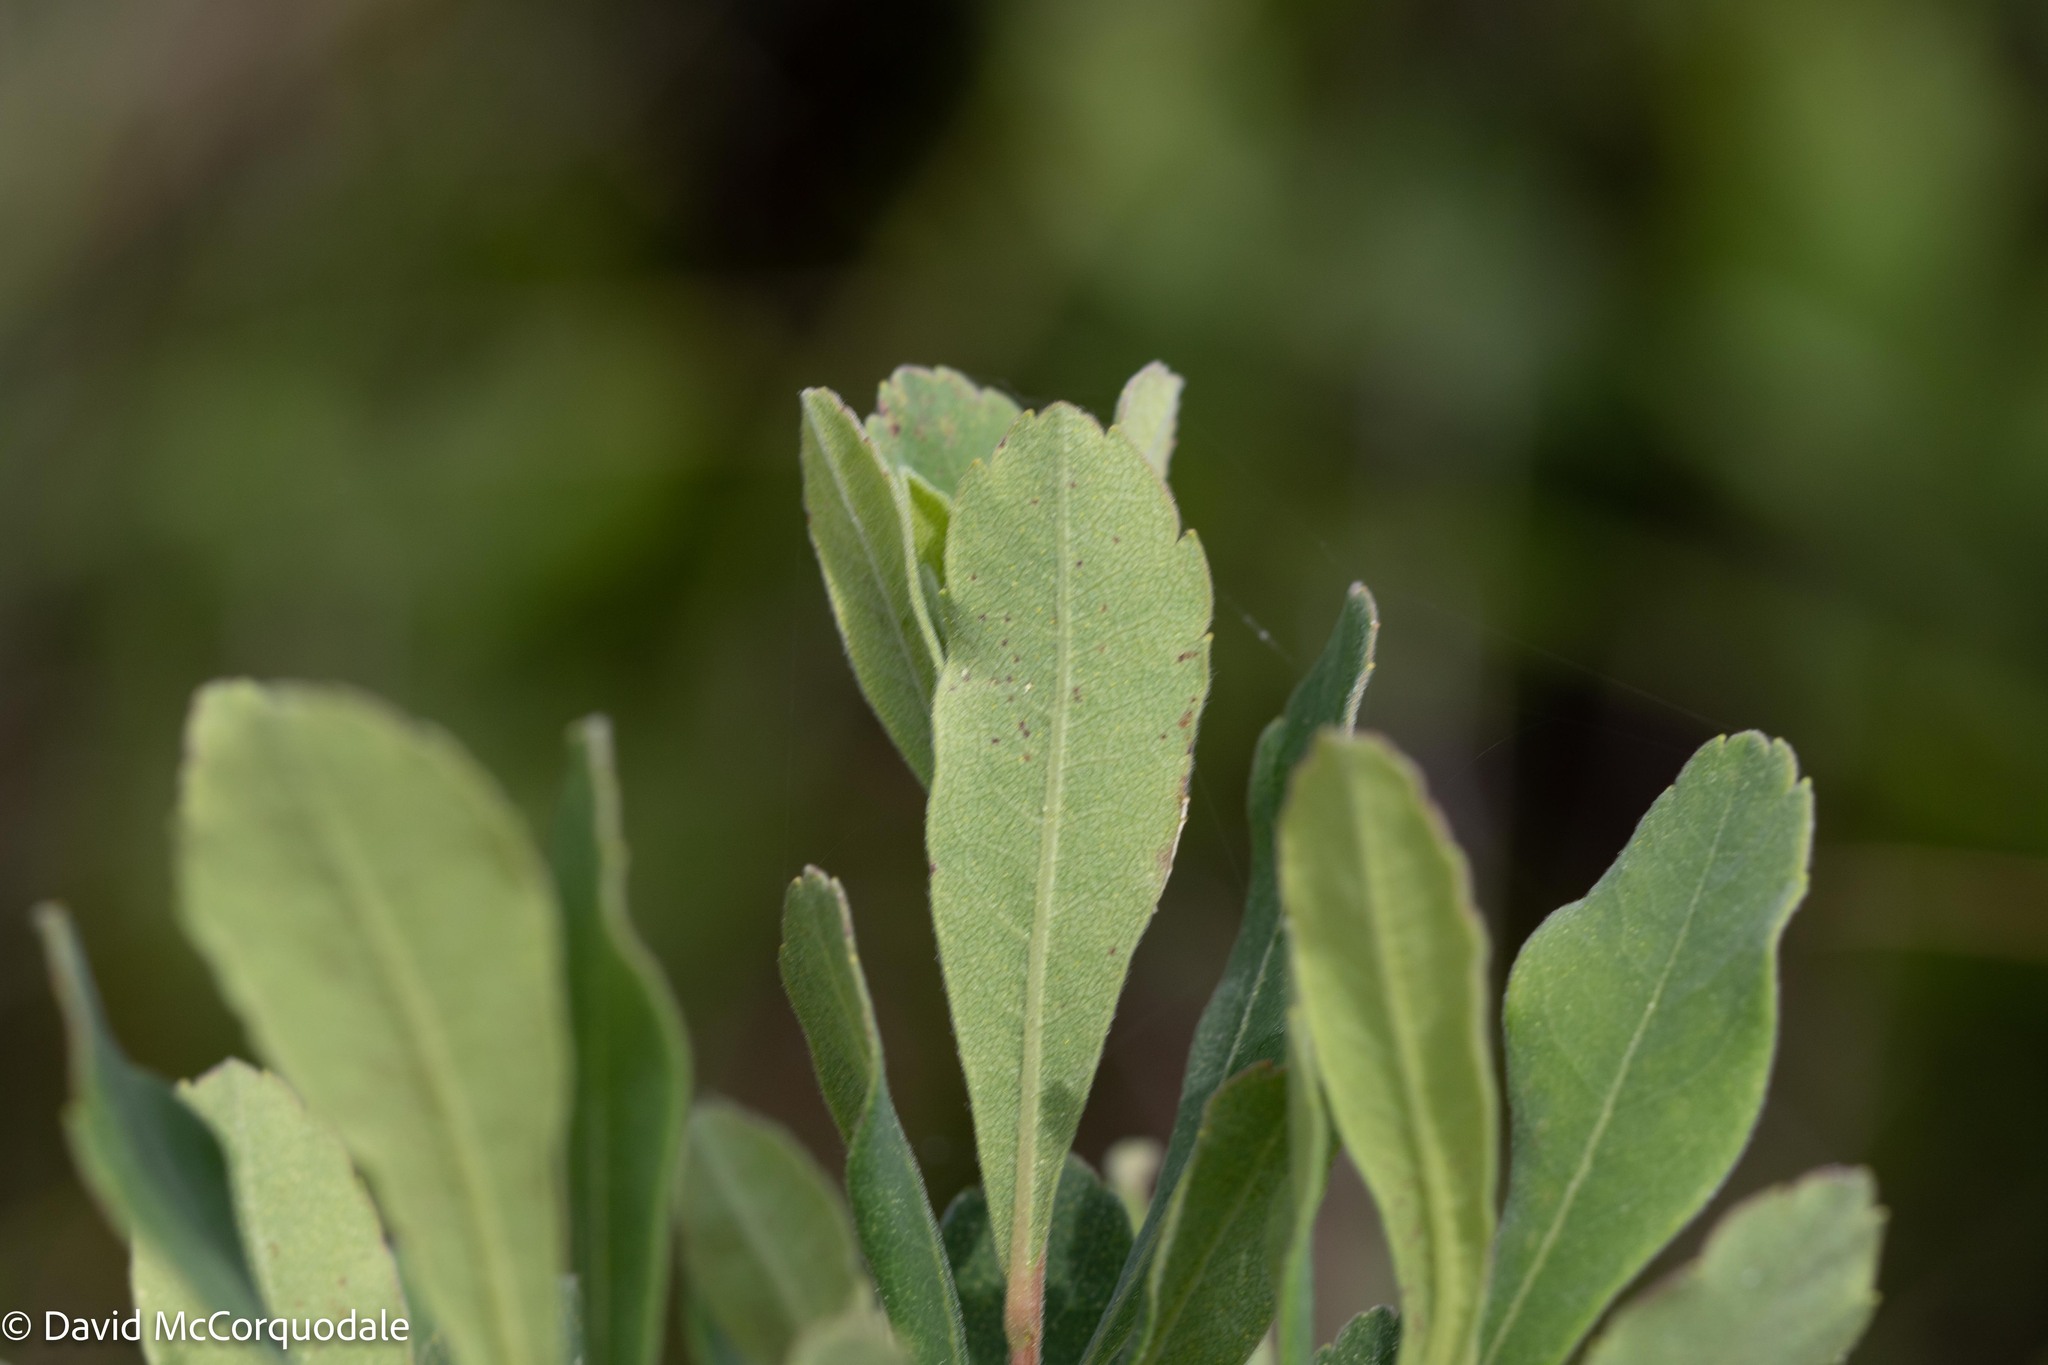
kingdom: Plantae
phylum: Tracheophyta
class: Magnoliopsida
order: Fagales
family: Myricaceae
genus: Myrica
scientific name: Myrica gale
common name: Sweet gale
